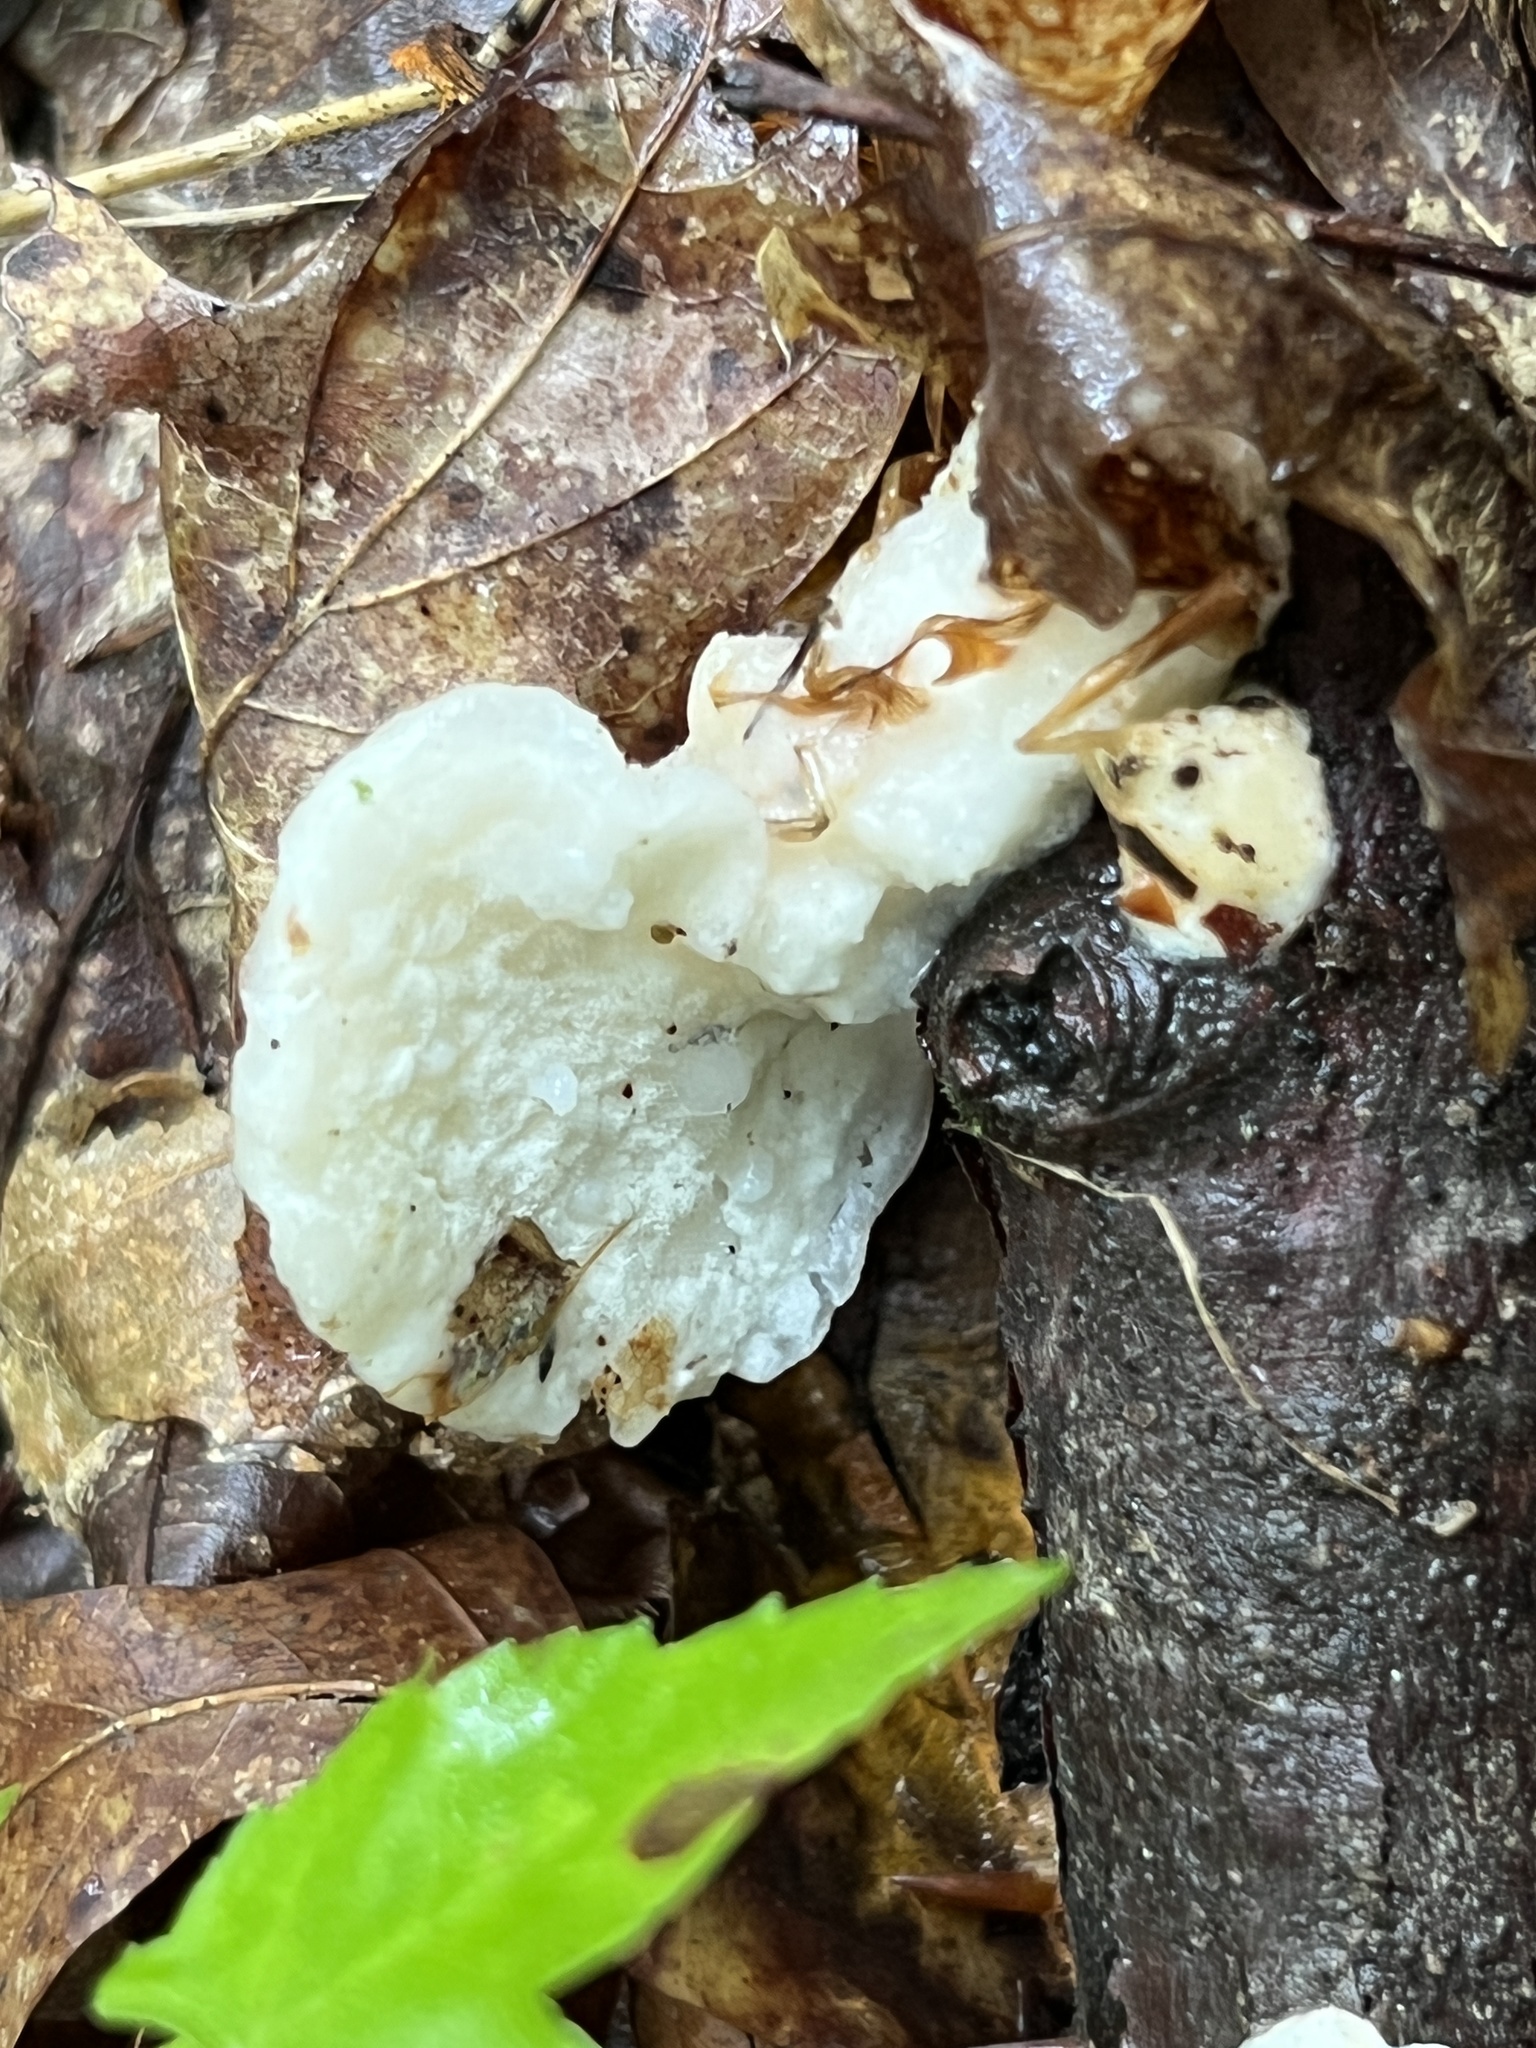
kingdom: Fungi
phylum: Basidiomycota
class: Agaricomycetes
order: Polyporales
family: Incrustoporiaceae
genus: Tyromyces
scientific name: Tyromyces chioneus
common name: White cheese polypore
